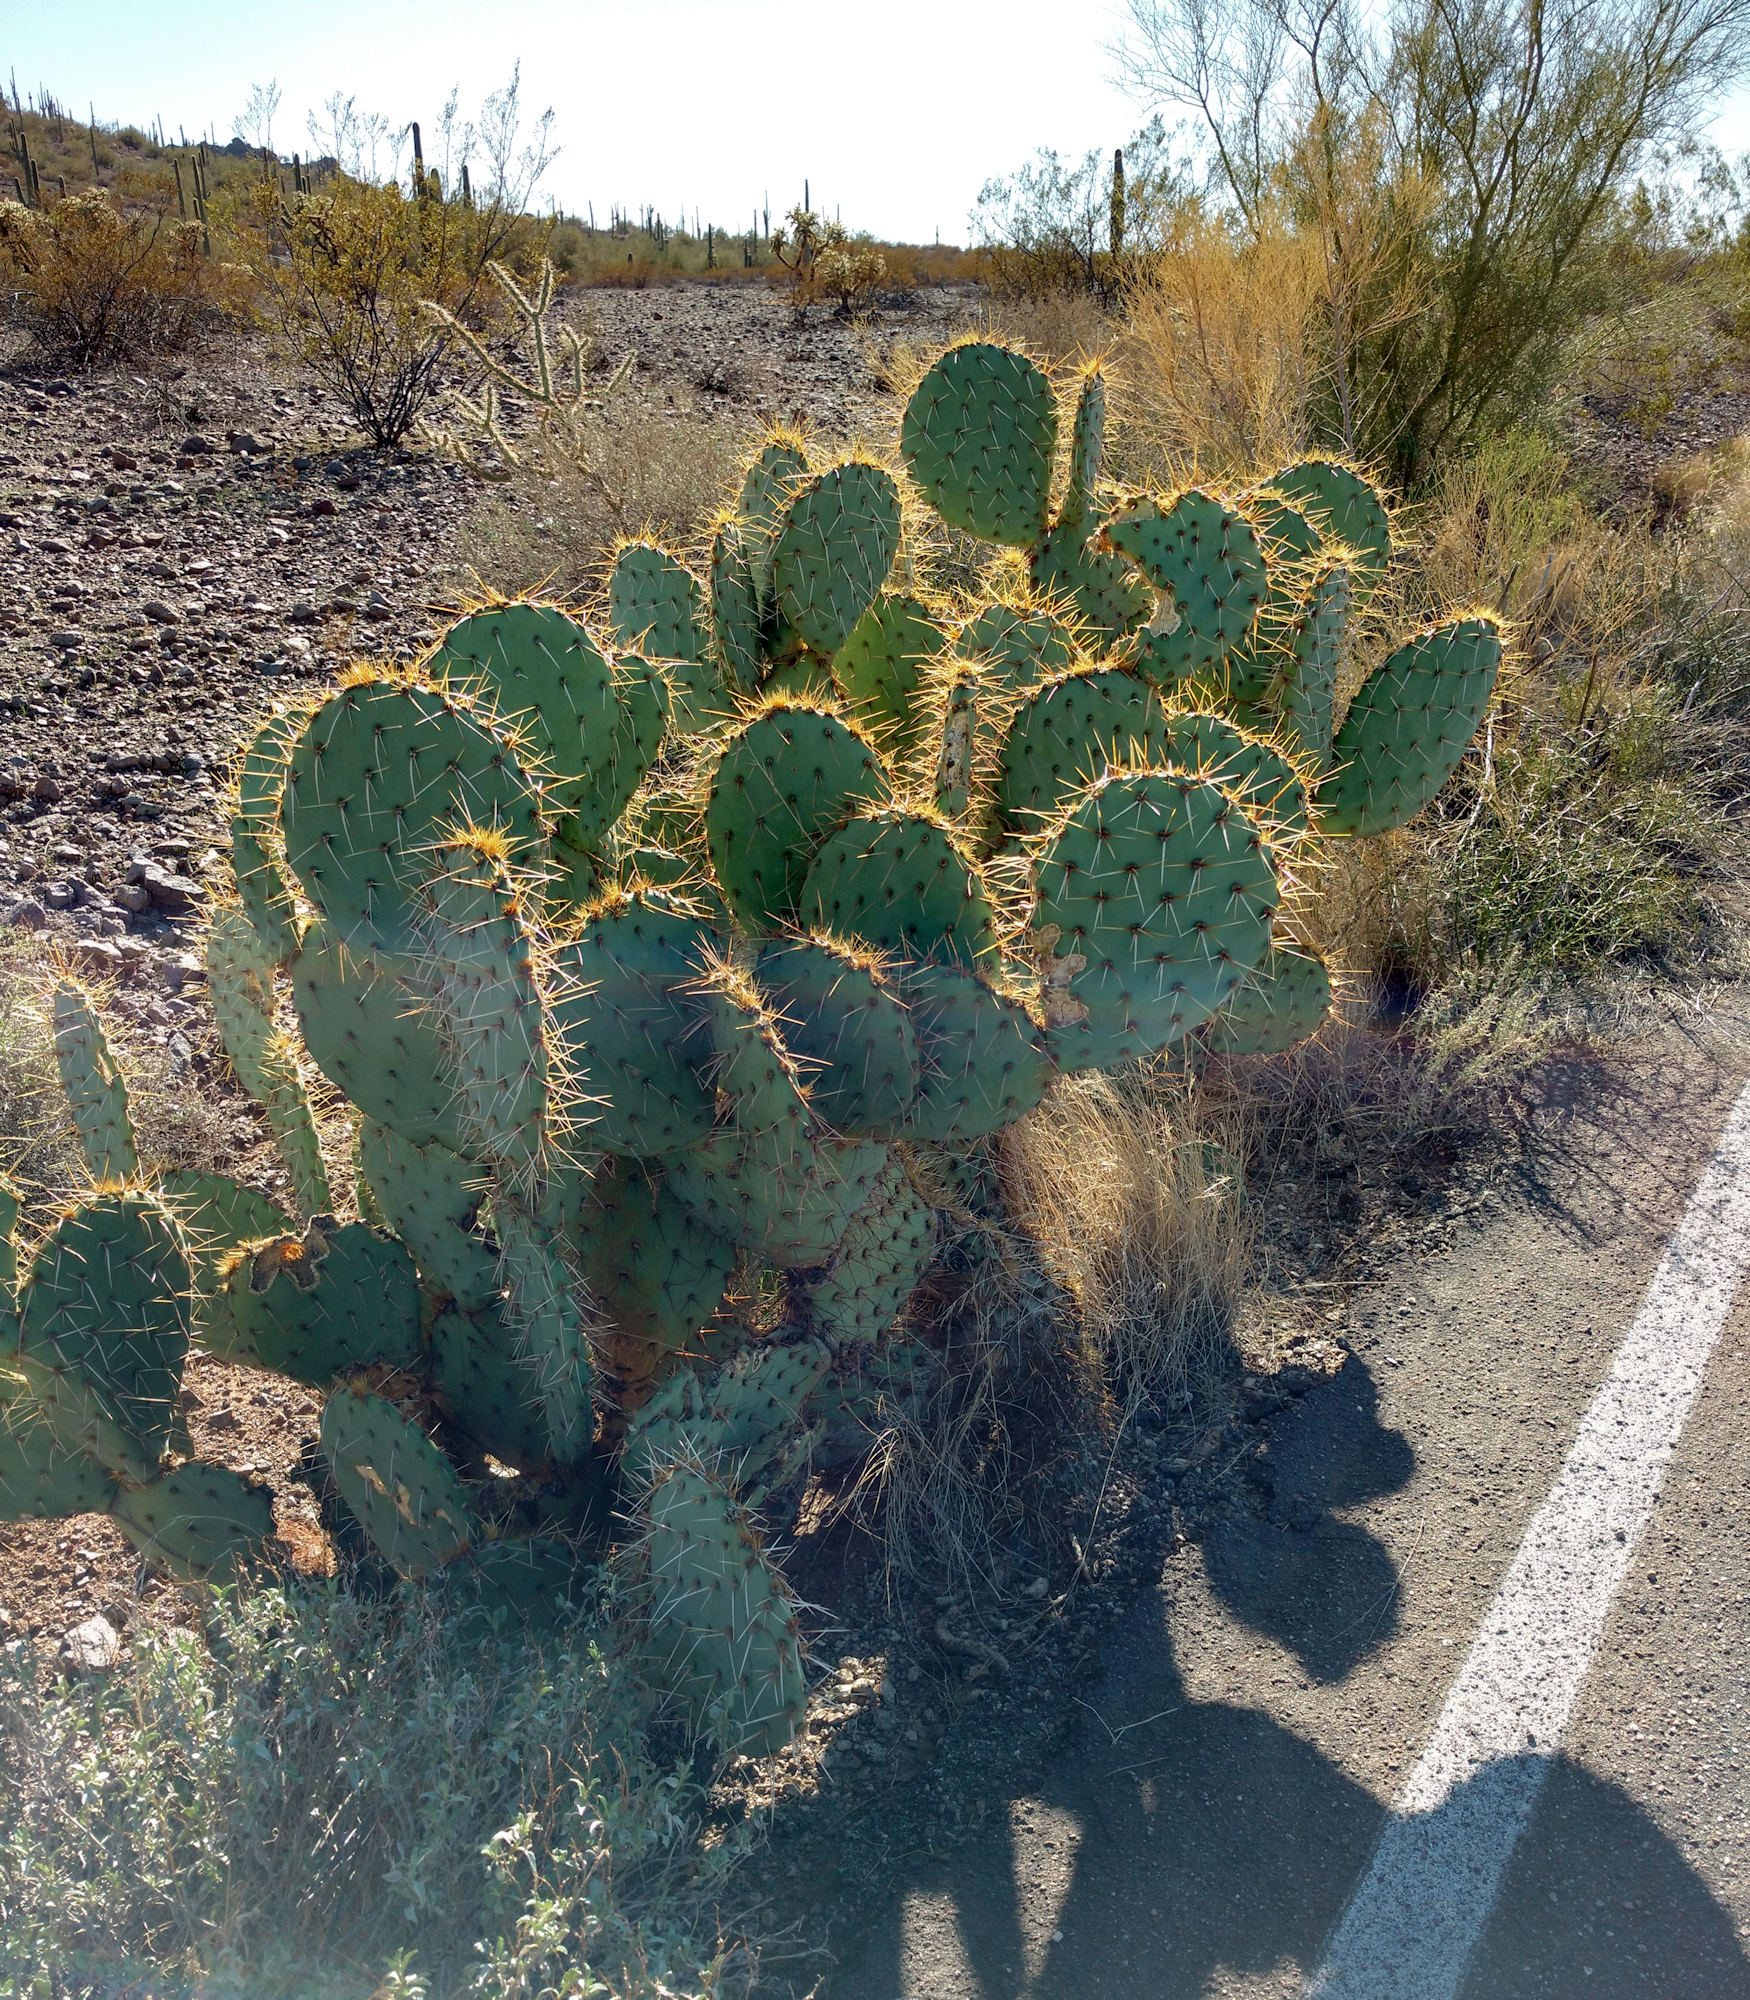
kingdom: Plantae
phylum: Tracheophyta
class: Magnoliopsida
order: Caryophyllales
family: Cactaceae
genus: Opuntia
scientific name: Opuntia engelmannii
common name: Cactus-apple
